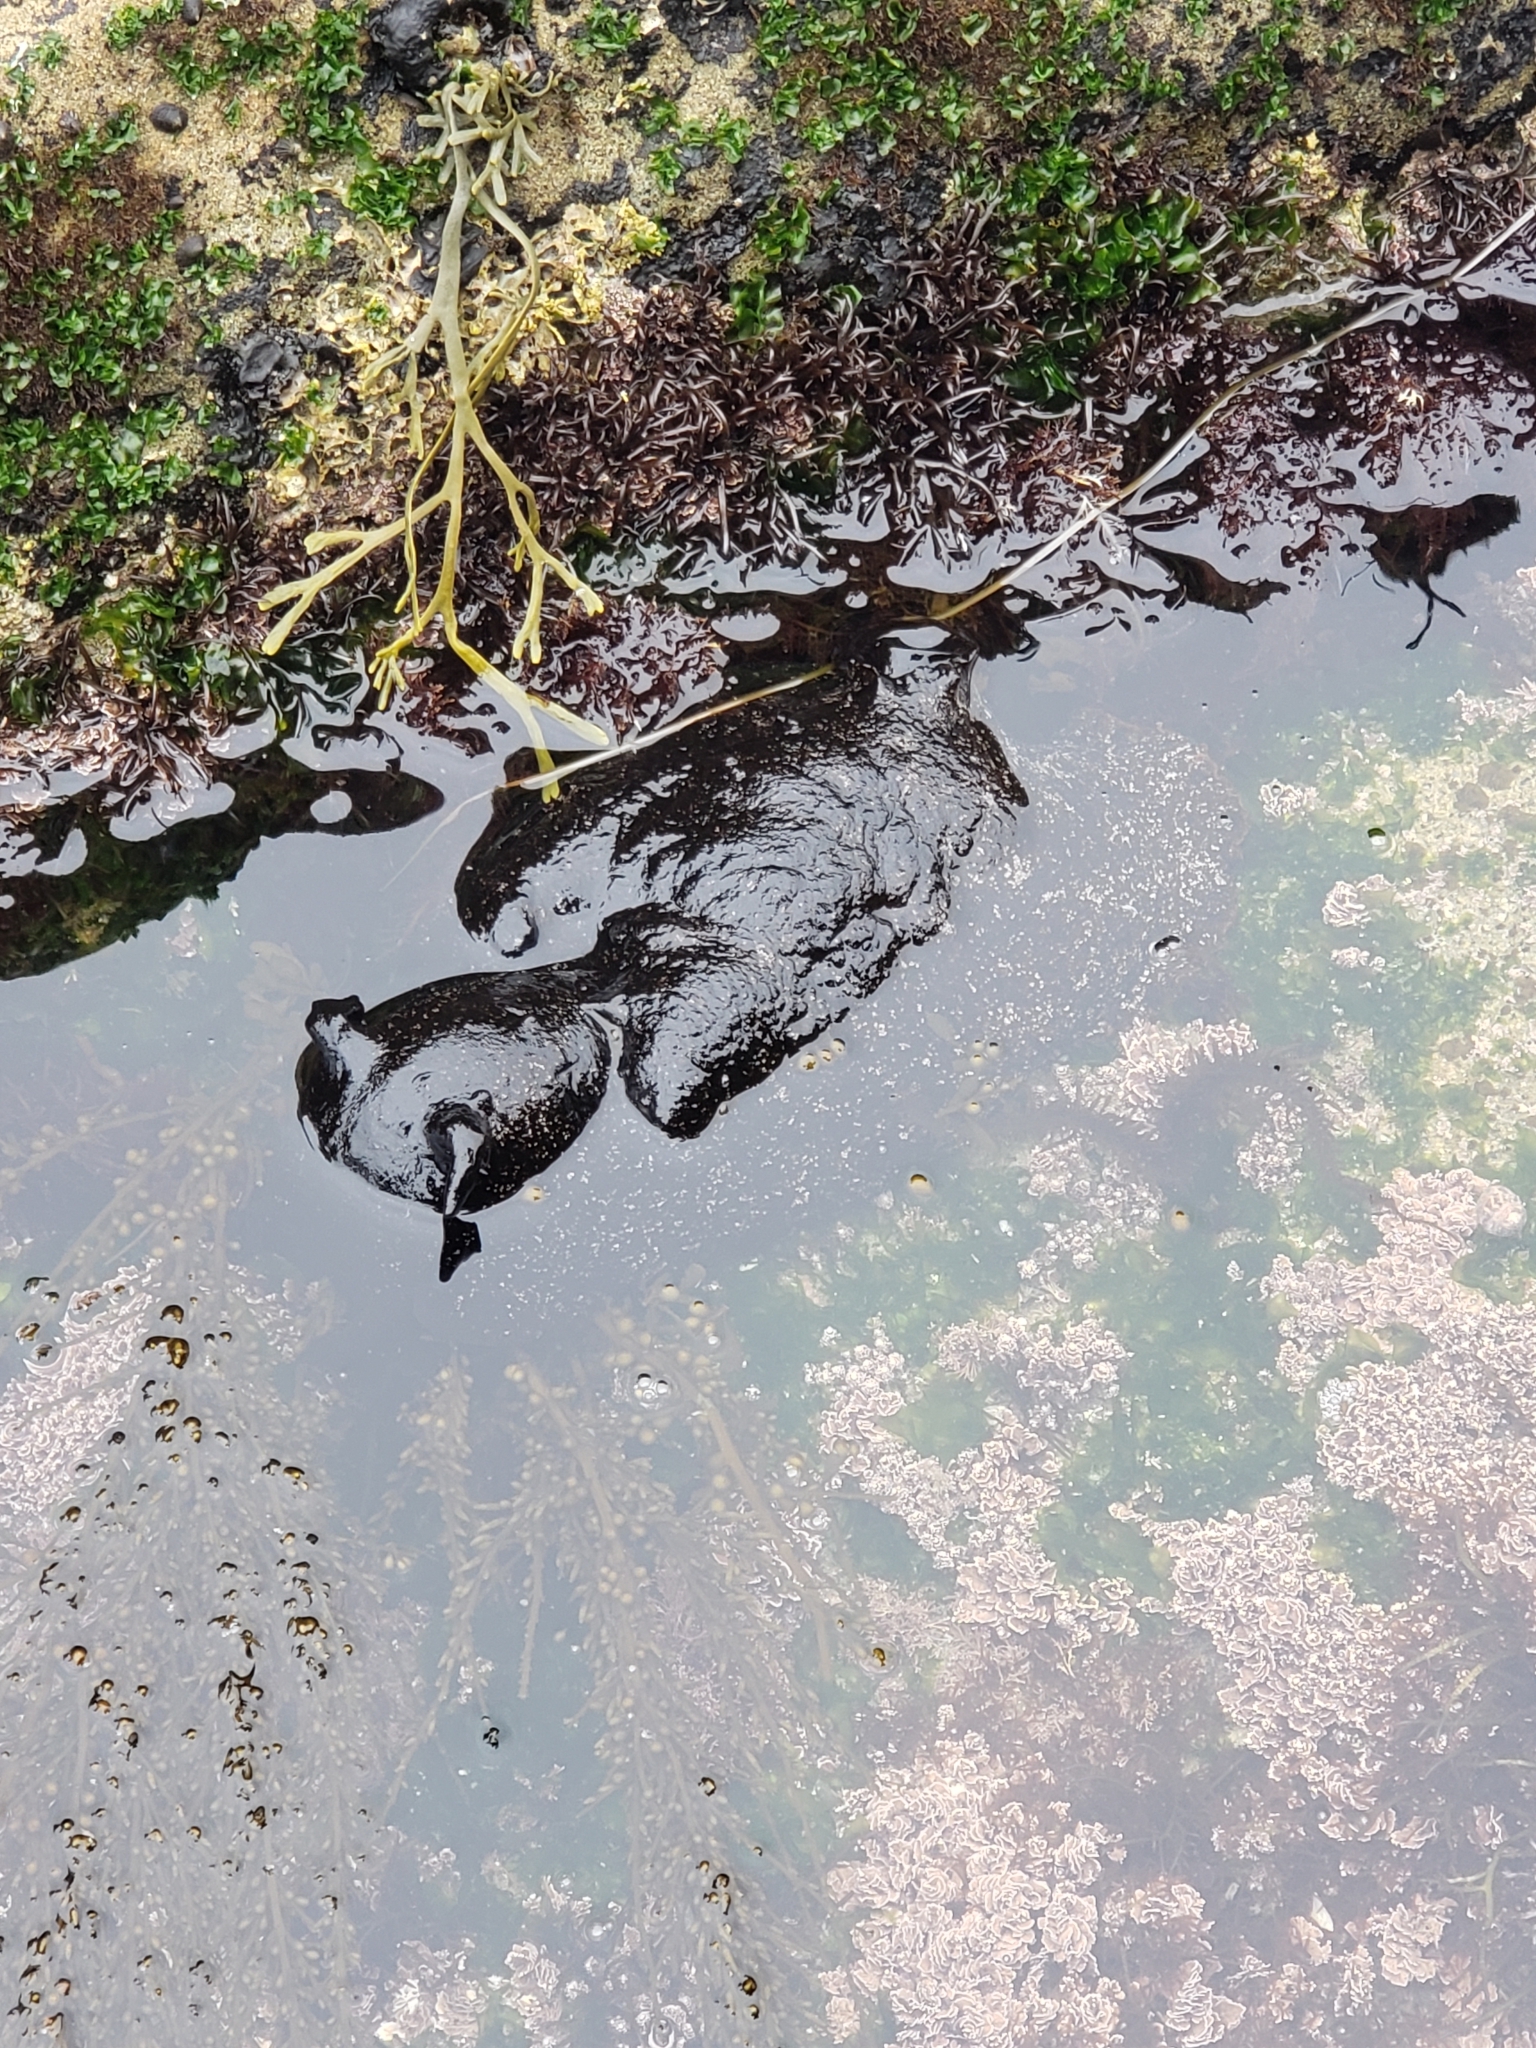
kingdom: Animalia
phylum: Mollusca
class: Gastropoda
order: Aplysiida
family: Aplysiidae
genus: Aplysia
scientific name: Aplysia vaccaria
